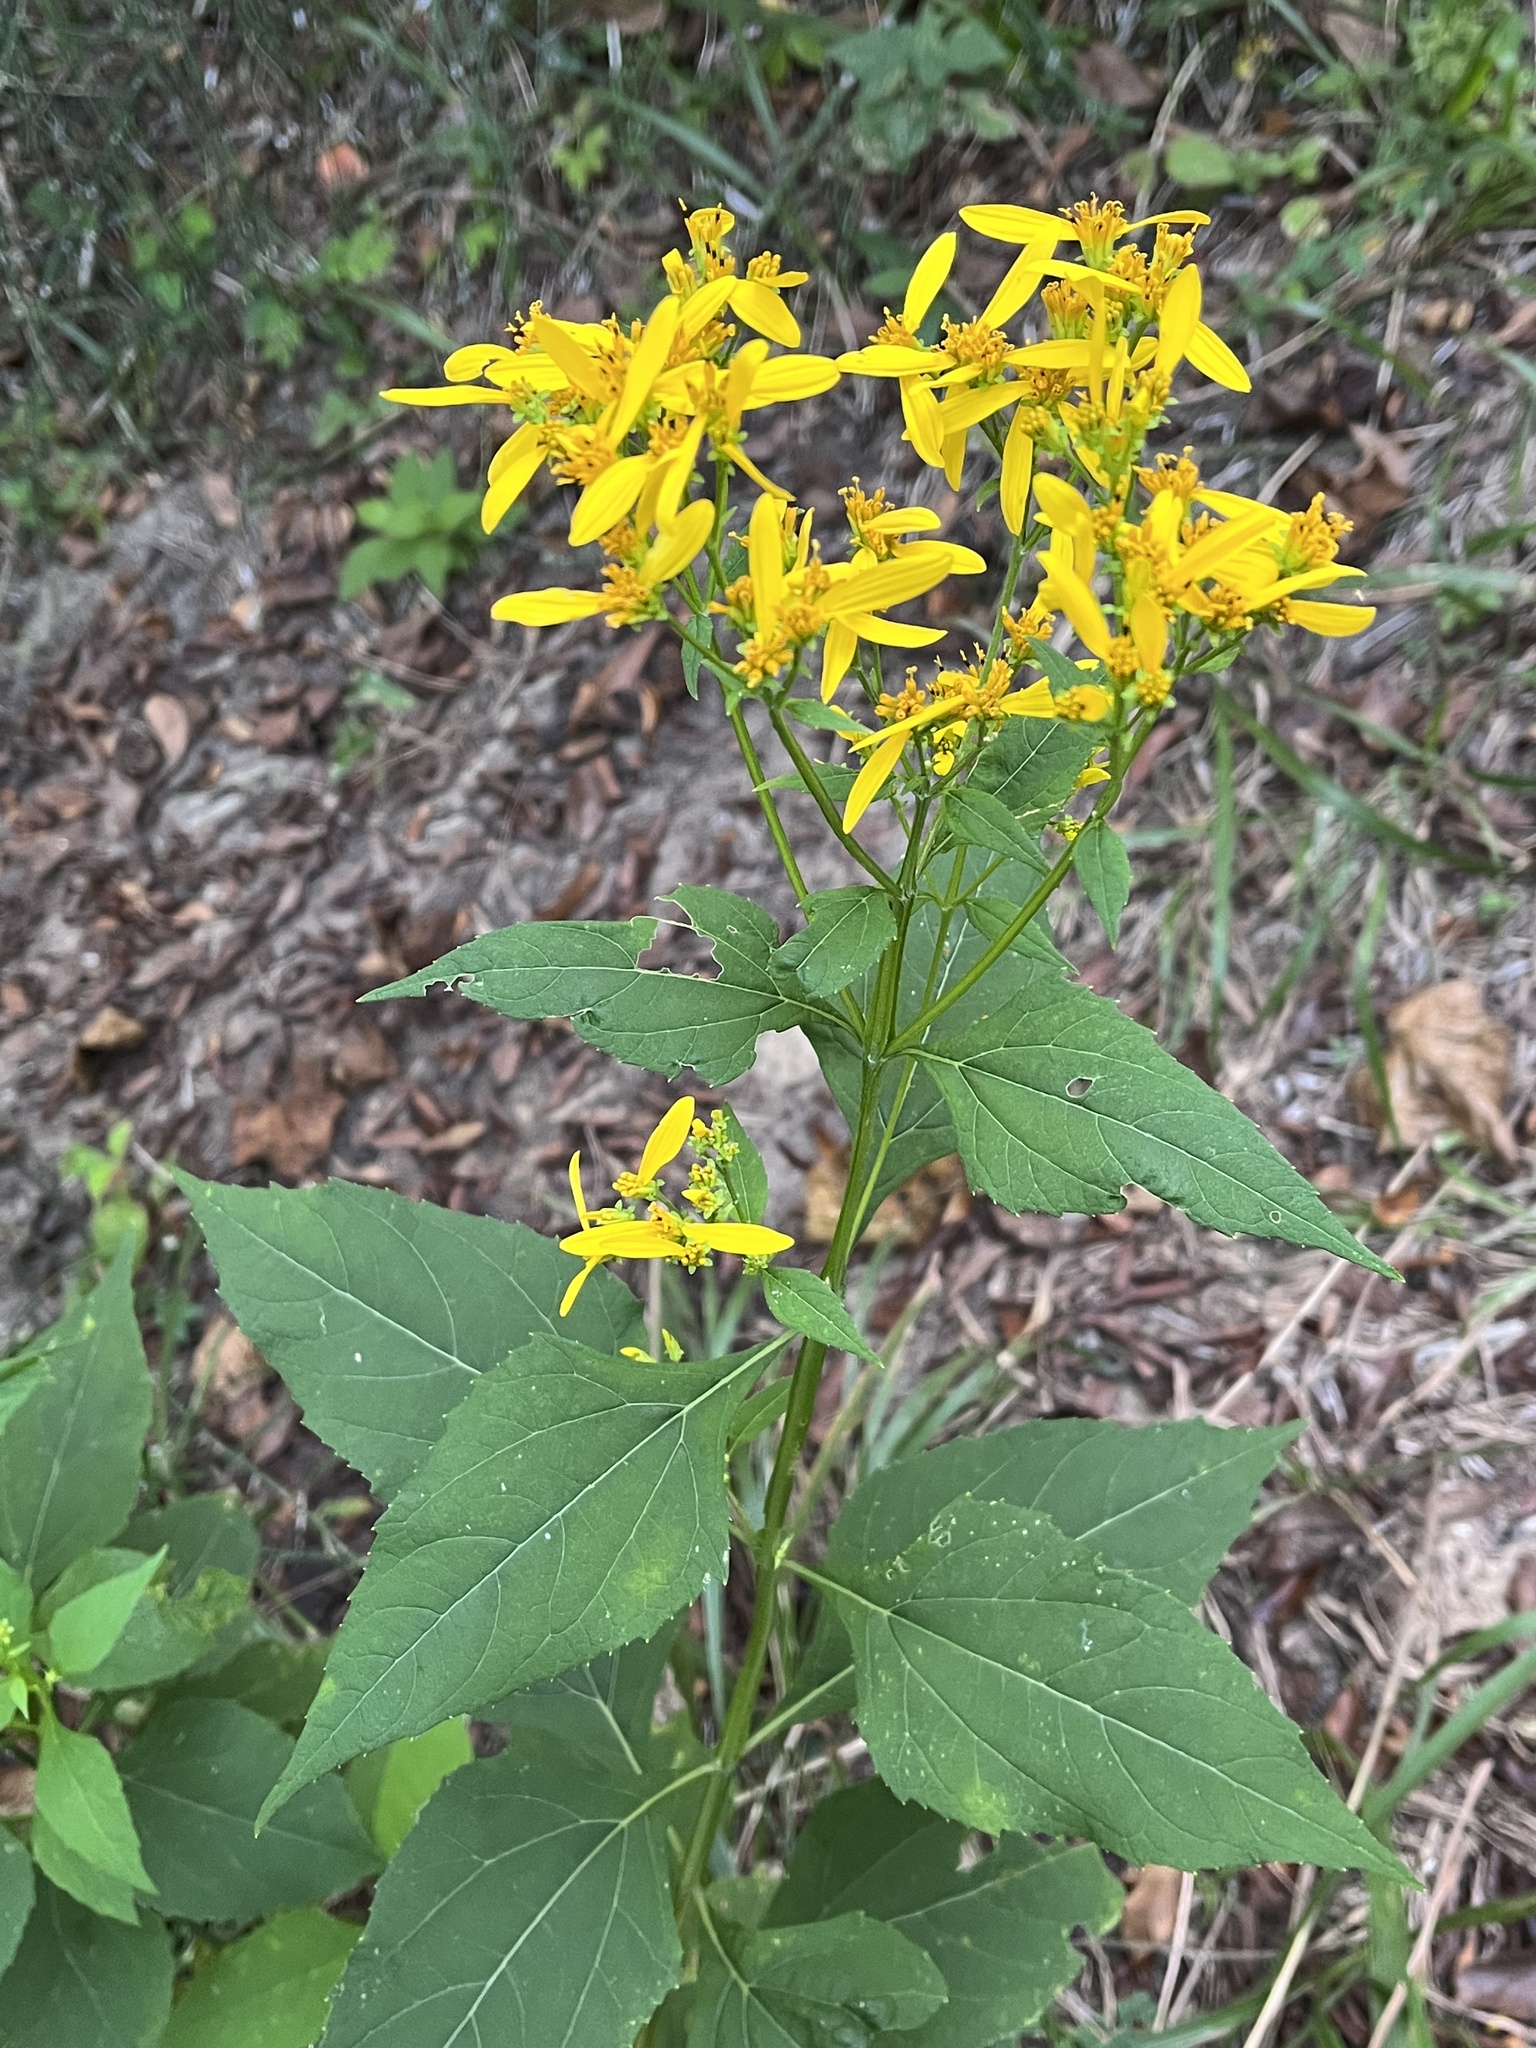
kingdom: Plantae
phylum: Tracheophyta
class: Magnoliopsida
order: Asterales
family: Asteraceae
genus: Verbesina
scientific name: Verbesina occidentalis
